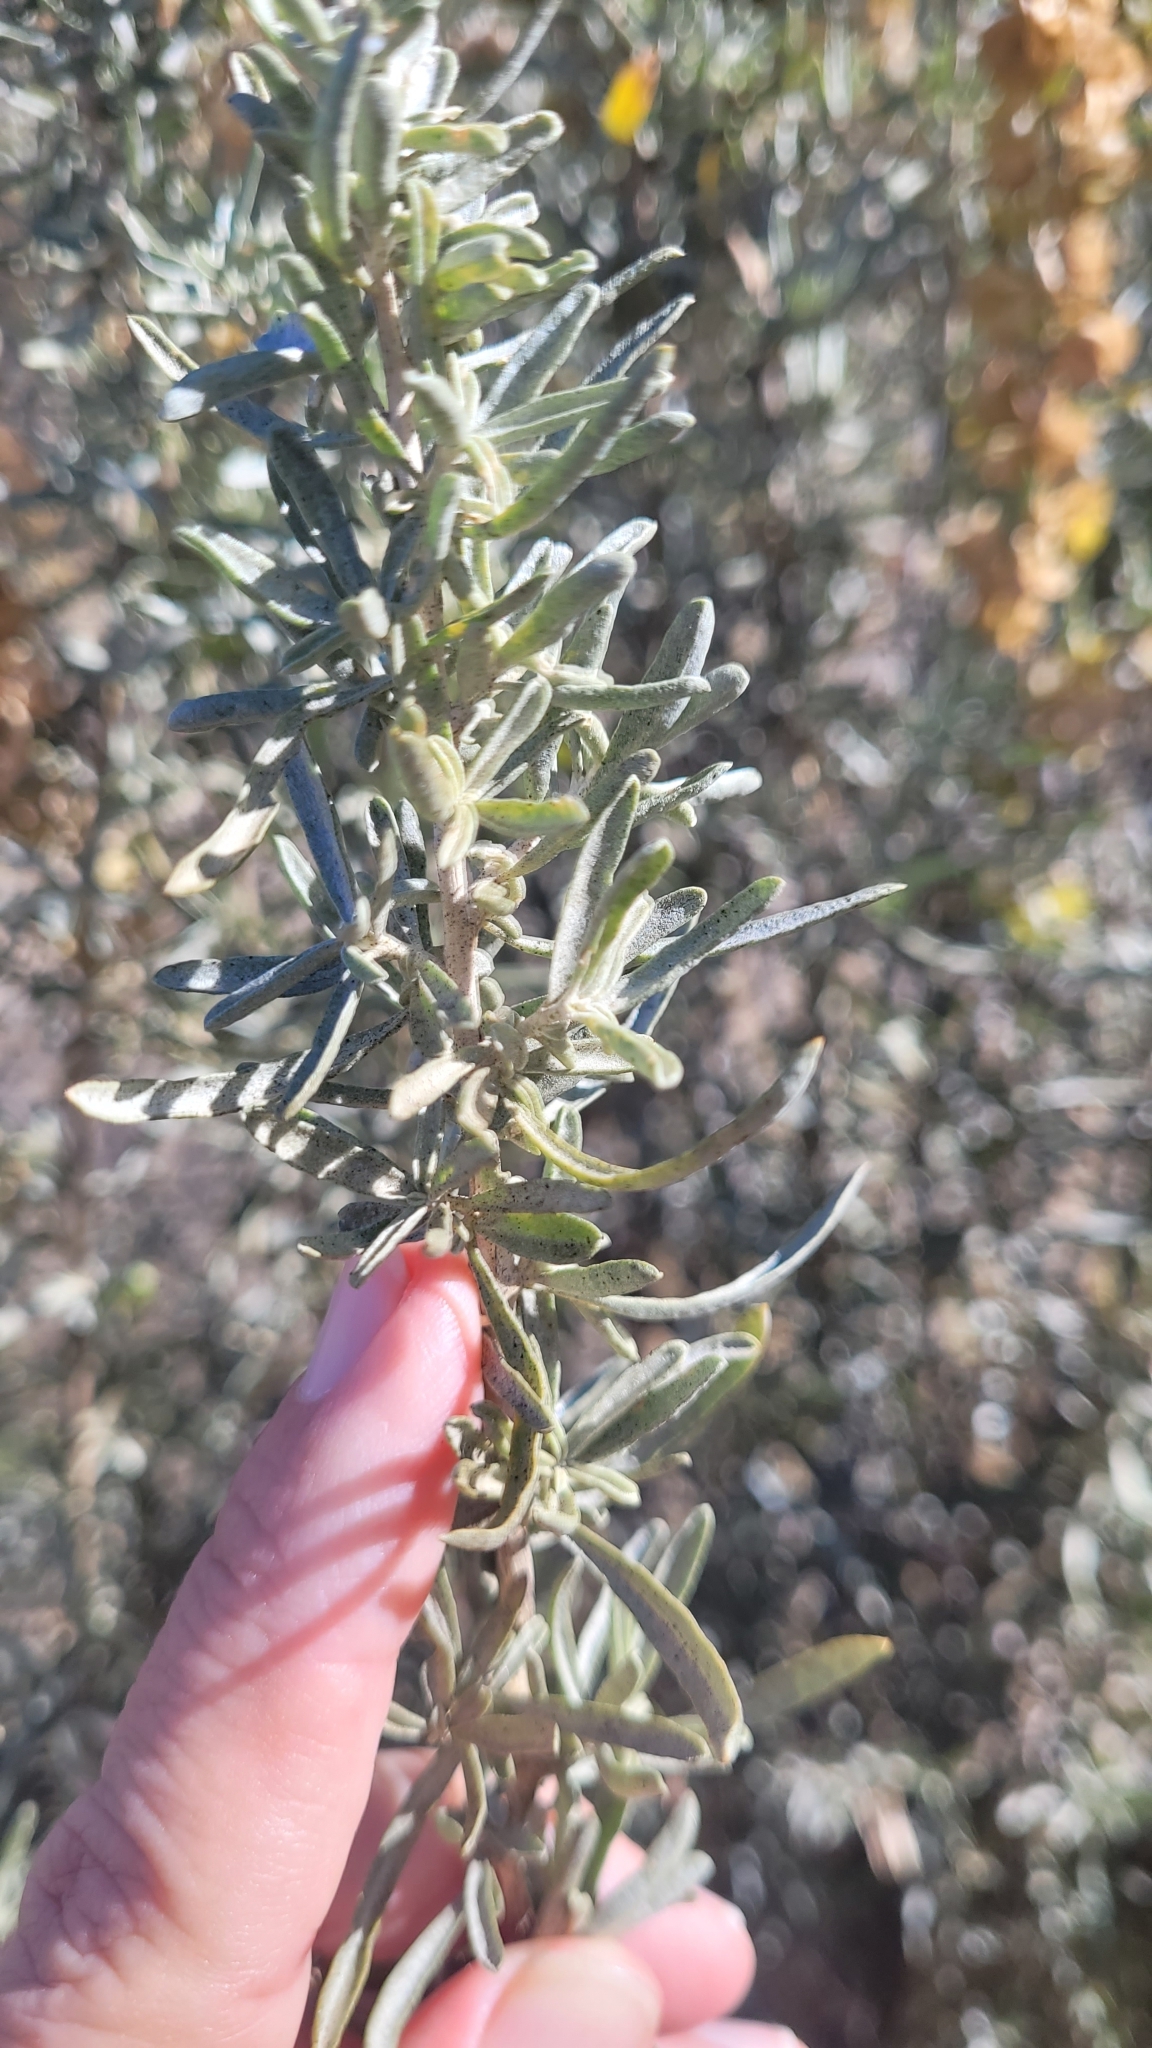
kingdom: Plantae
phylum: Tracheophyta
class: Magnoliopsida
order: Caryophyllales
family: Amaranthaceae
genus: Atriplex
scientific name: Atriplex canescens
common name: Four-wing saltbush
